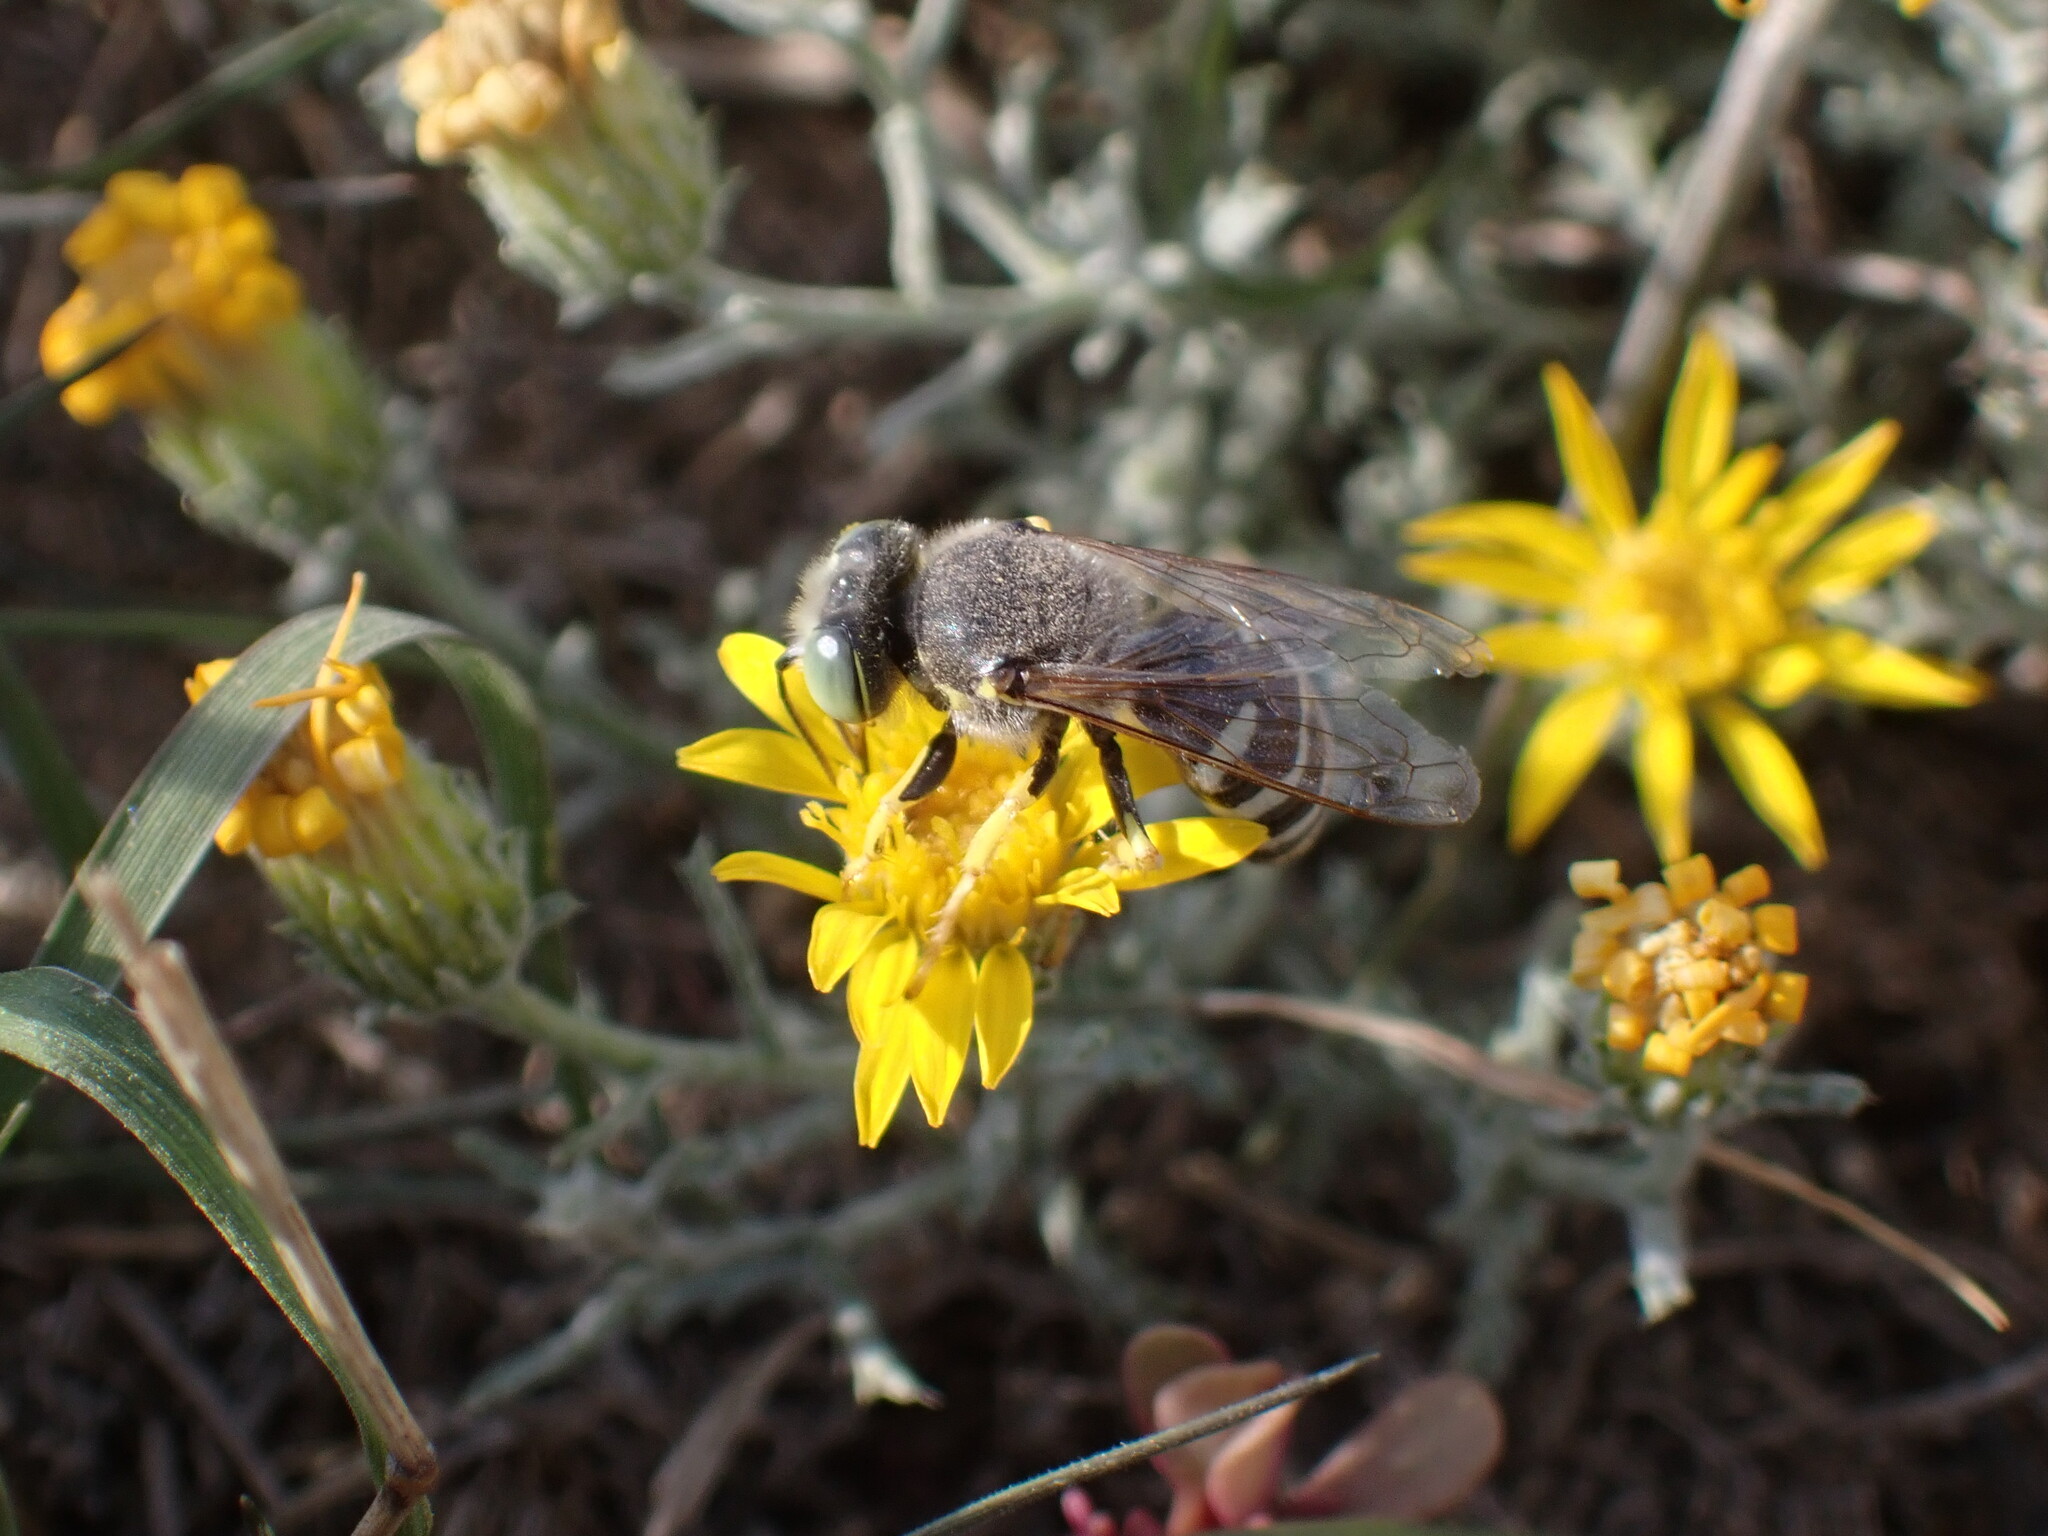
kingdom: Animalia
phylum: Arthropoda
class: Insecta
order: Hymenoptera
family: Crabronidae
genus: Bembix
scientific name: Bembix americana
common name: American sand wasp
